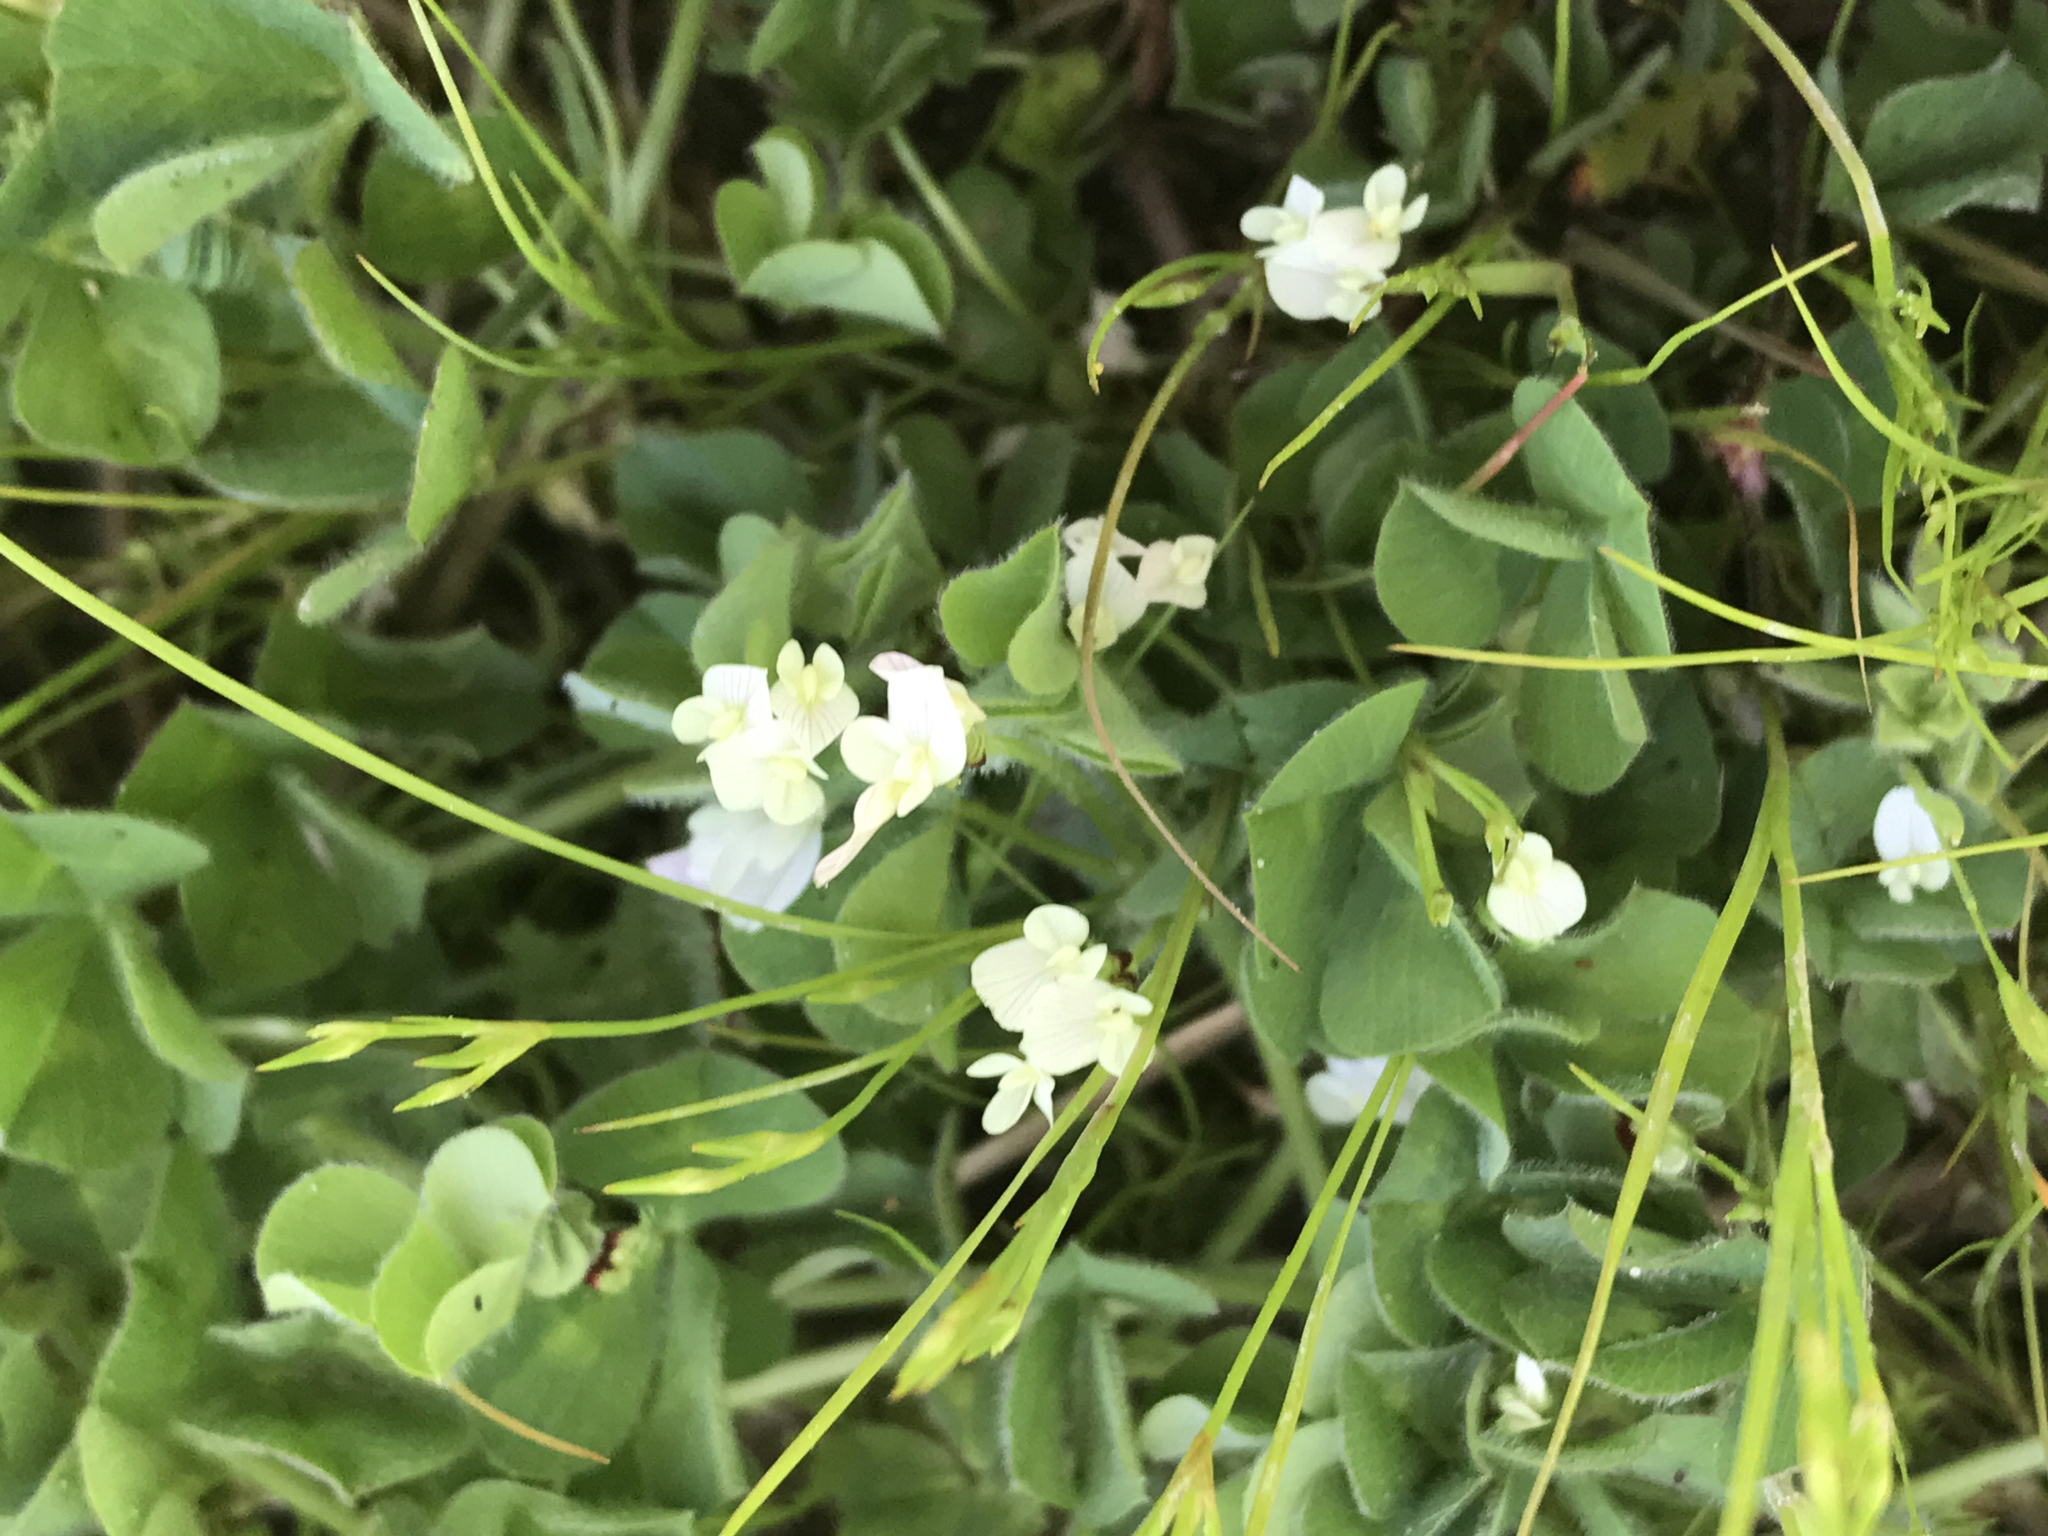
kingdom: Plantae
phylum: Tracheophyta
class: Magnoliopsida
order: Fabales
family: Fabaceae
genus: Trifolium
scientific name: Trifolium subterraneum
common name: Subterranean clover
